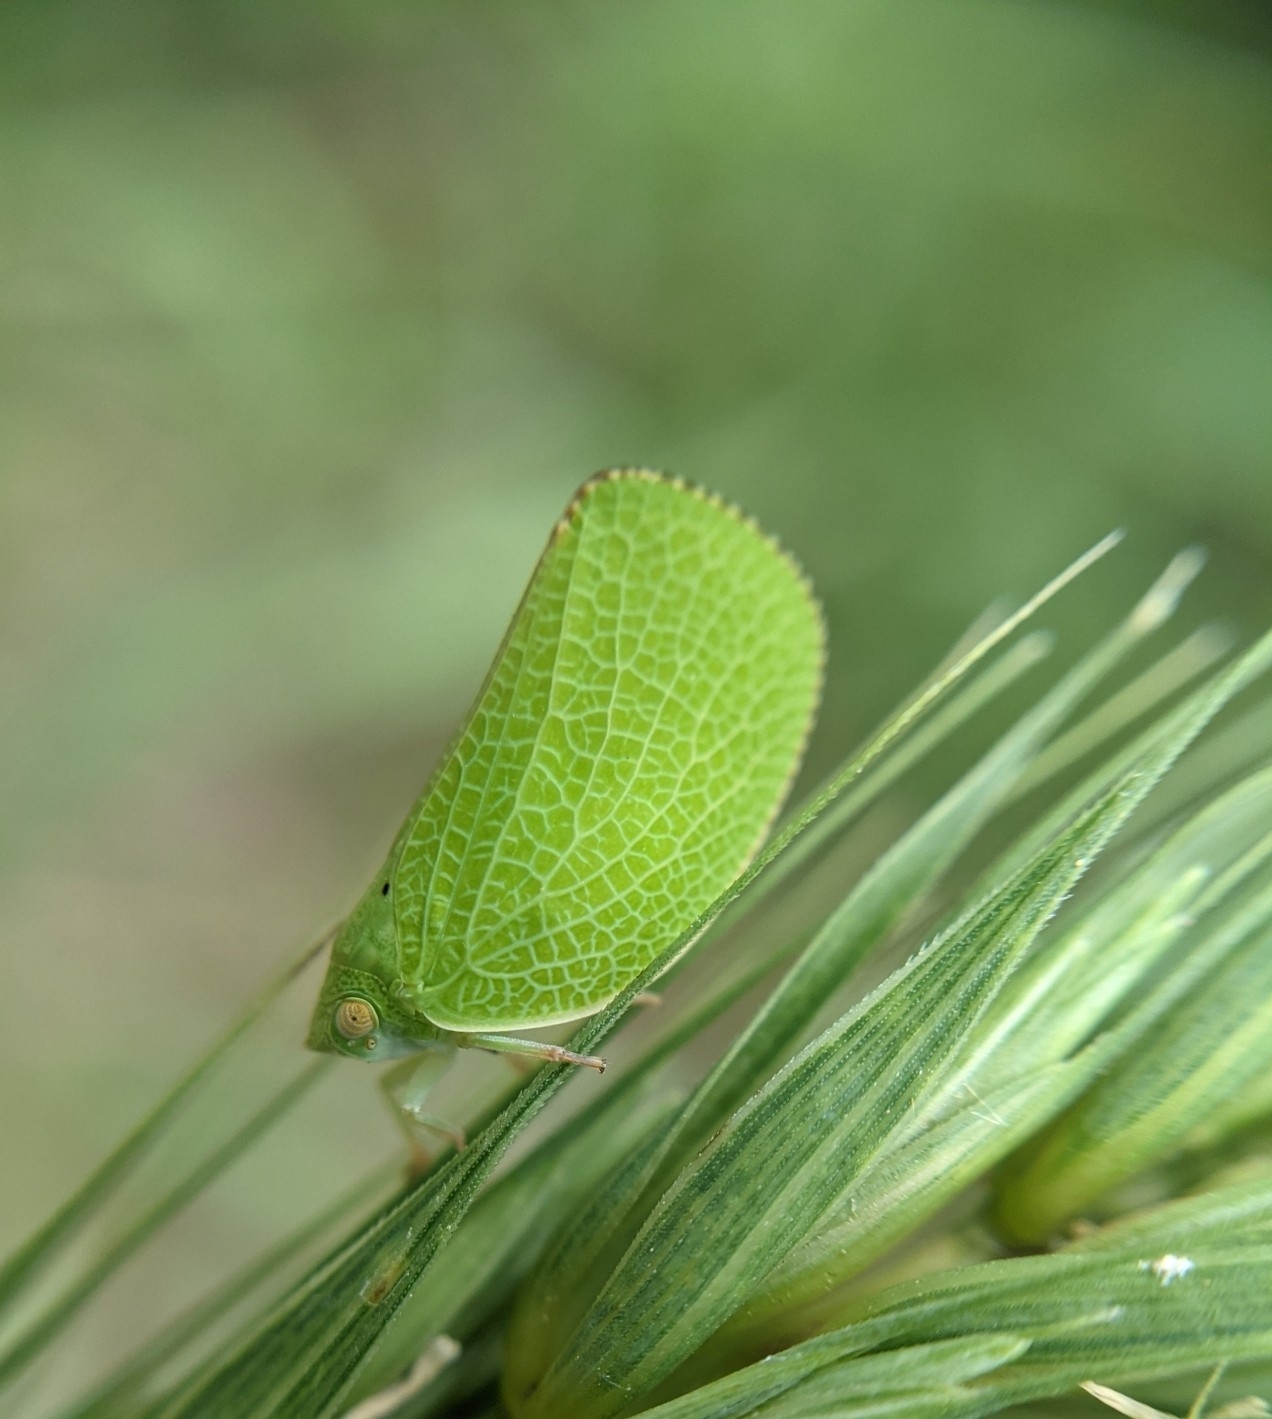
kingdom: Animalia
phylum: Arthropoda
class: Insecta
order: Hemiptera
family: Acanaloniidae
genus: Acanalonia
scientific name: Acanalonia conica
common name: Green cone-headed planthopper
